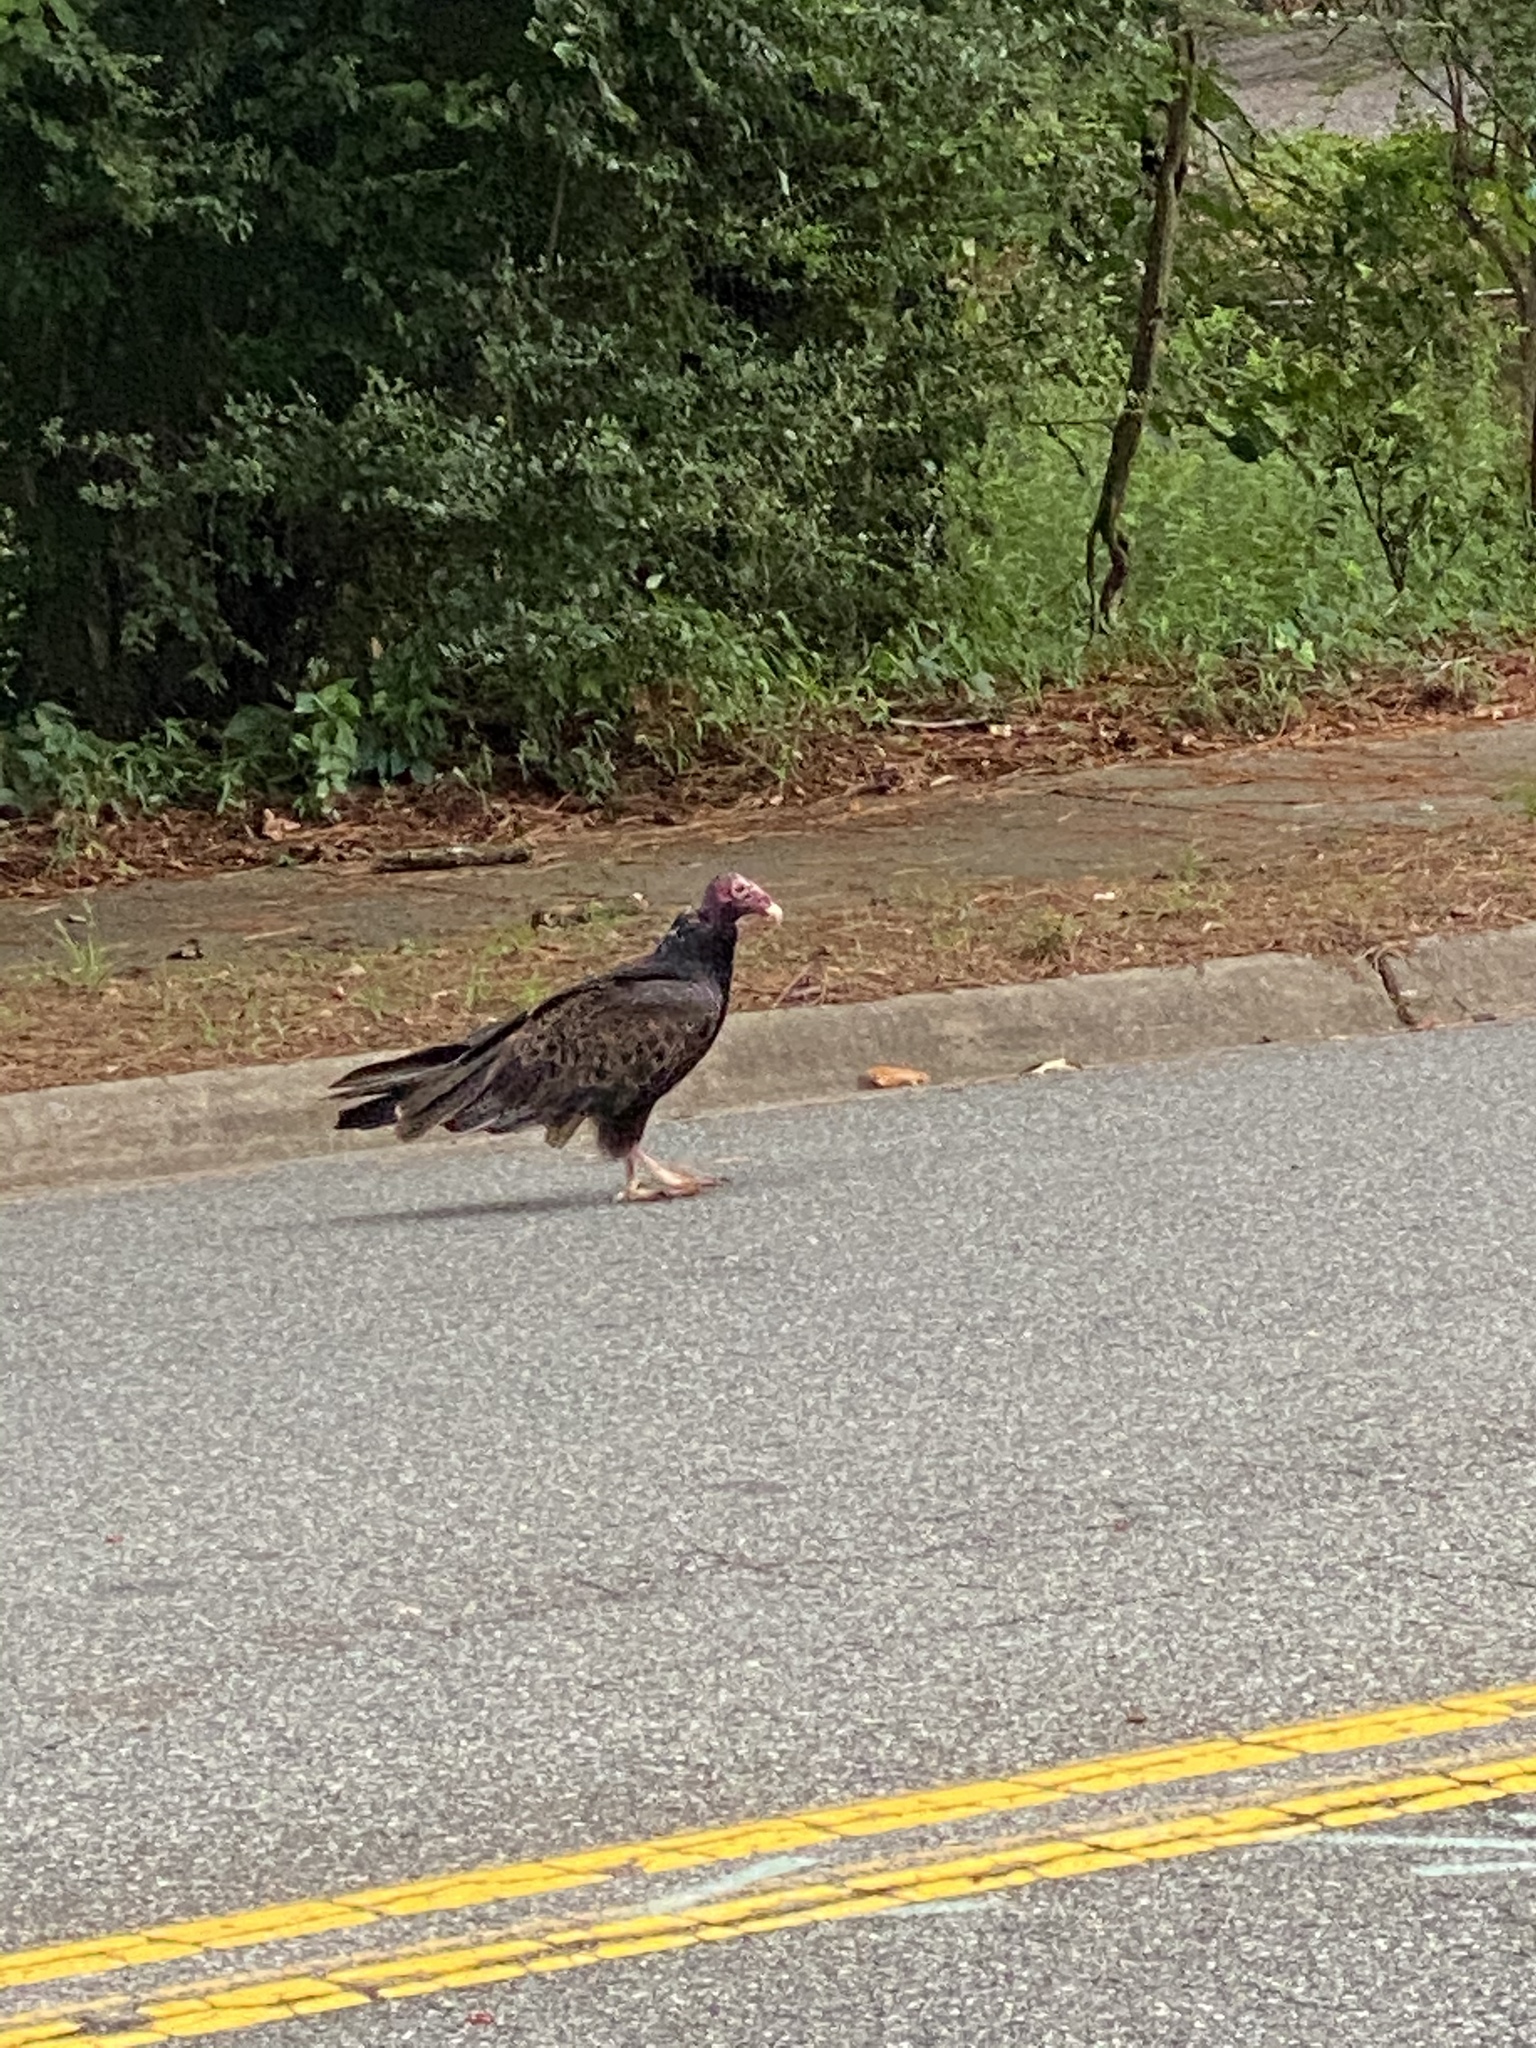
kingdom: Animalia
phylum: Chordata
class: Aves
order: Accipitriformes
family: Cathartidae
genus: Cathartes
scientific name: Cathartes aura
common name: Turkey vulture
